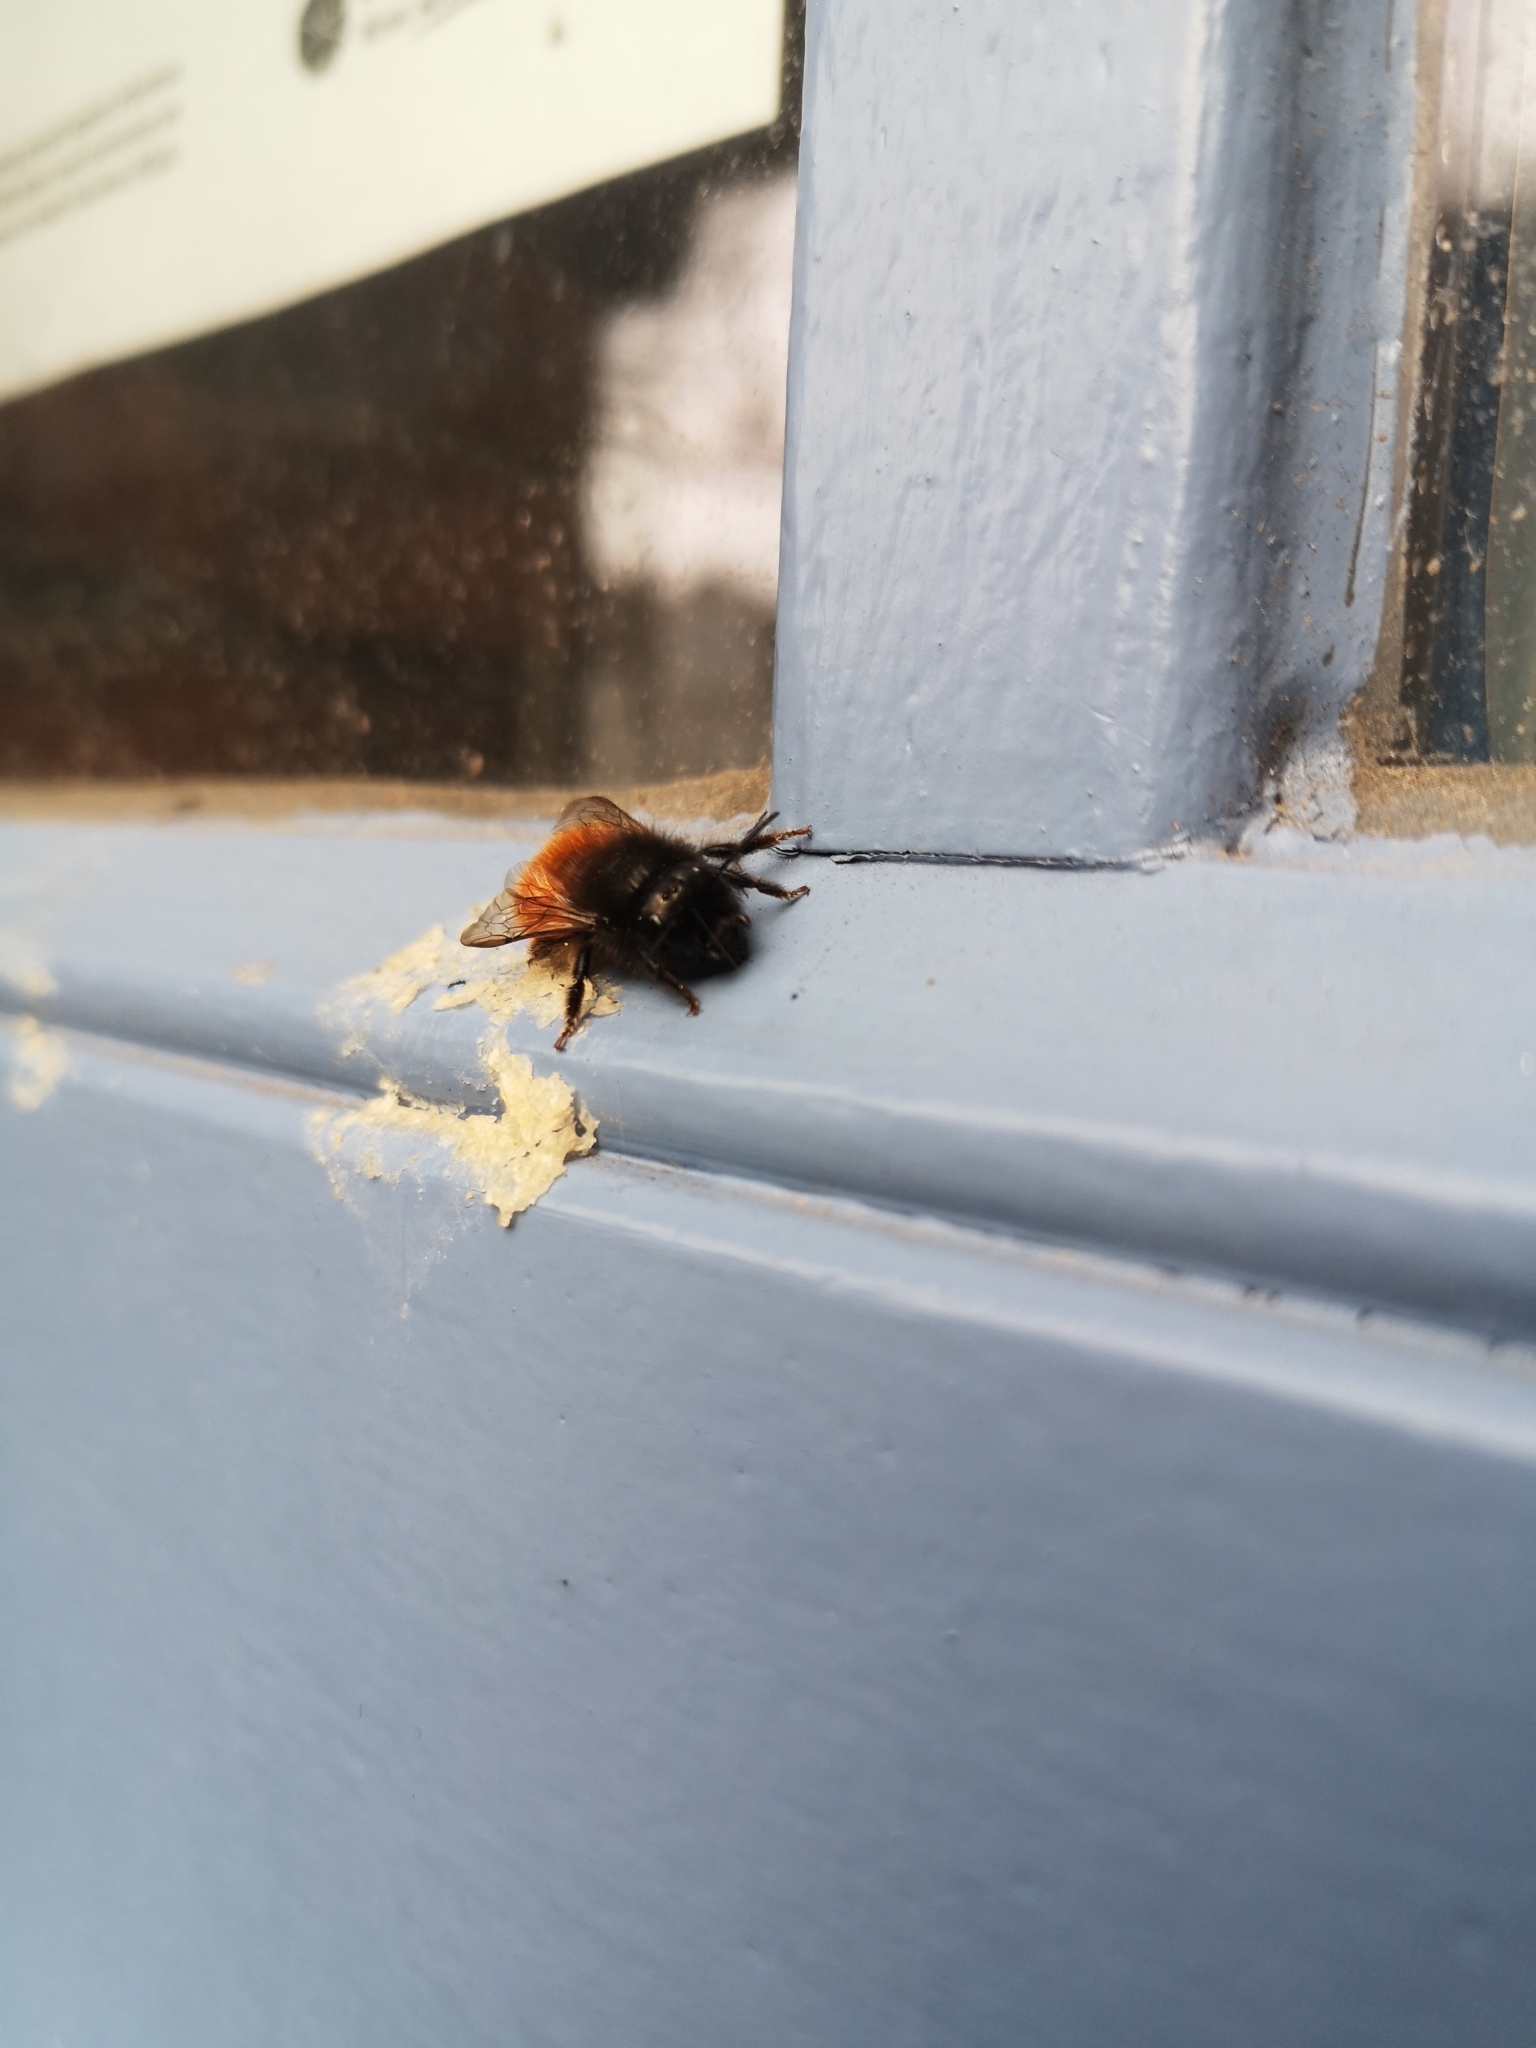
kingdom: Animalia
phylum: Arthropoda
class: Insecta
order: Hymenoptera
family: Megachilidae
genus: Osmia
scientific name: Osmia cornuta
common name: Mason bee
